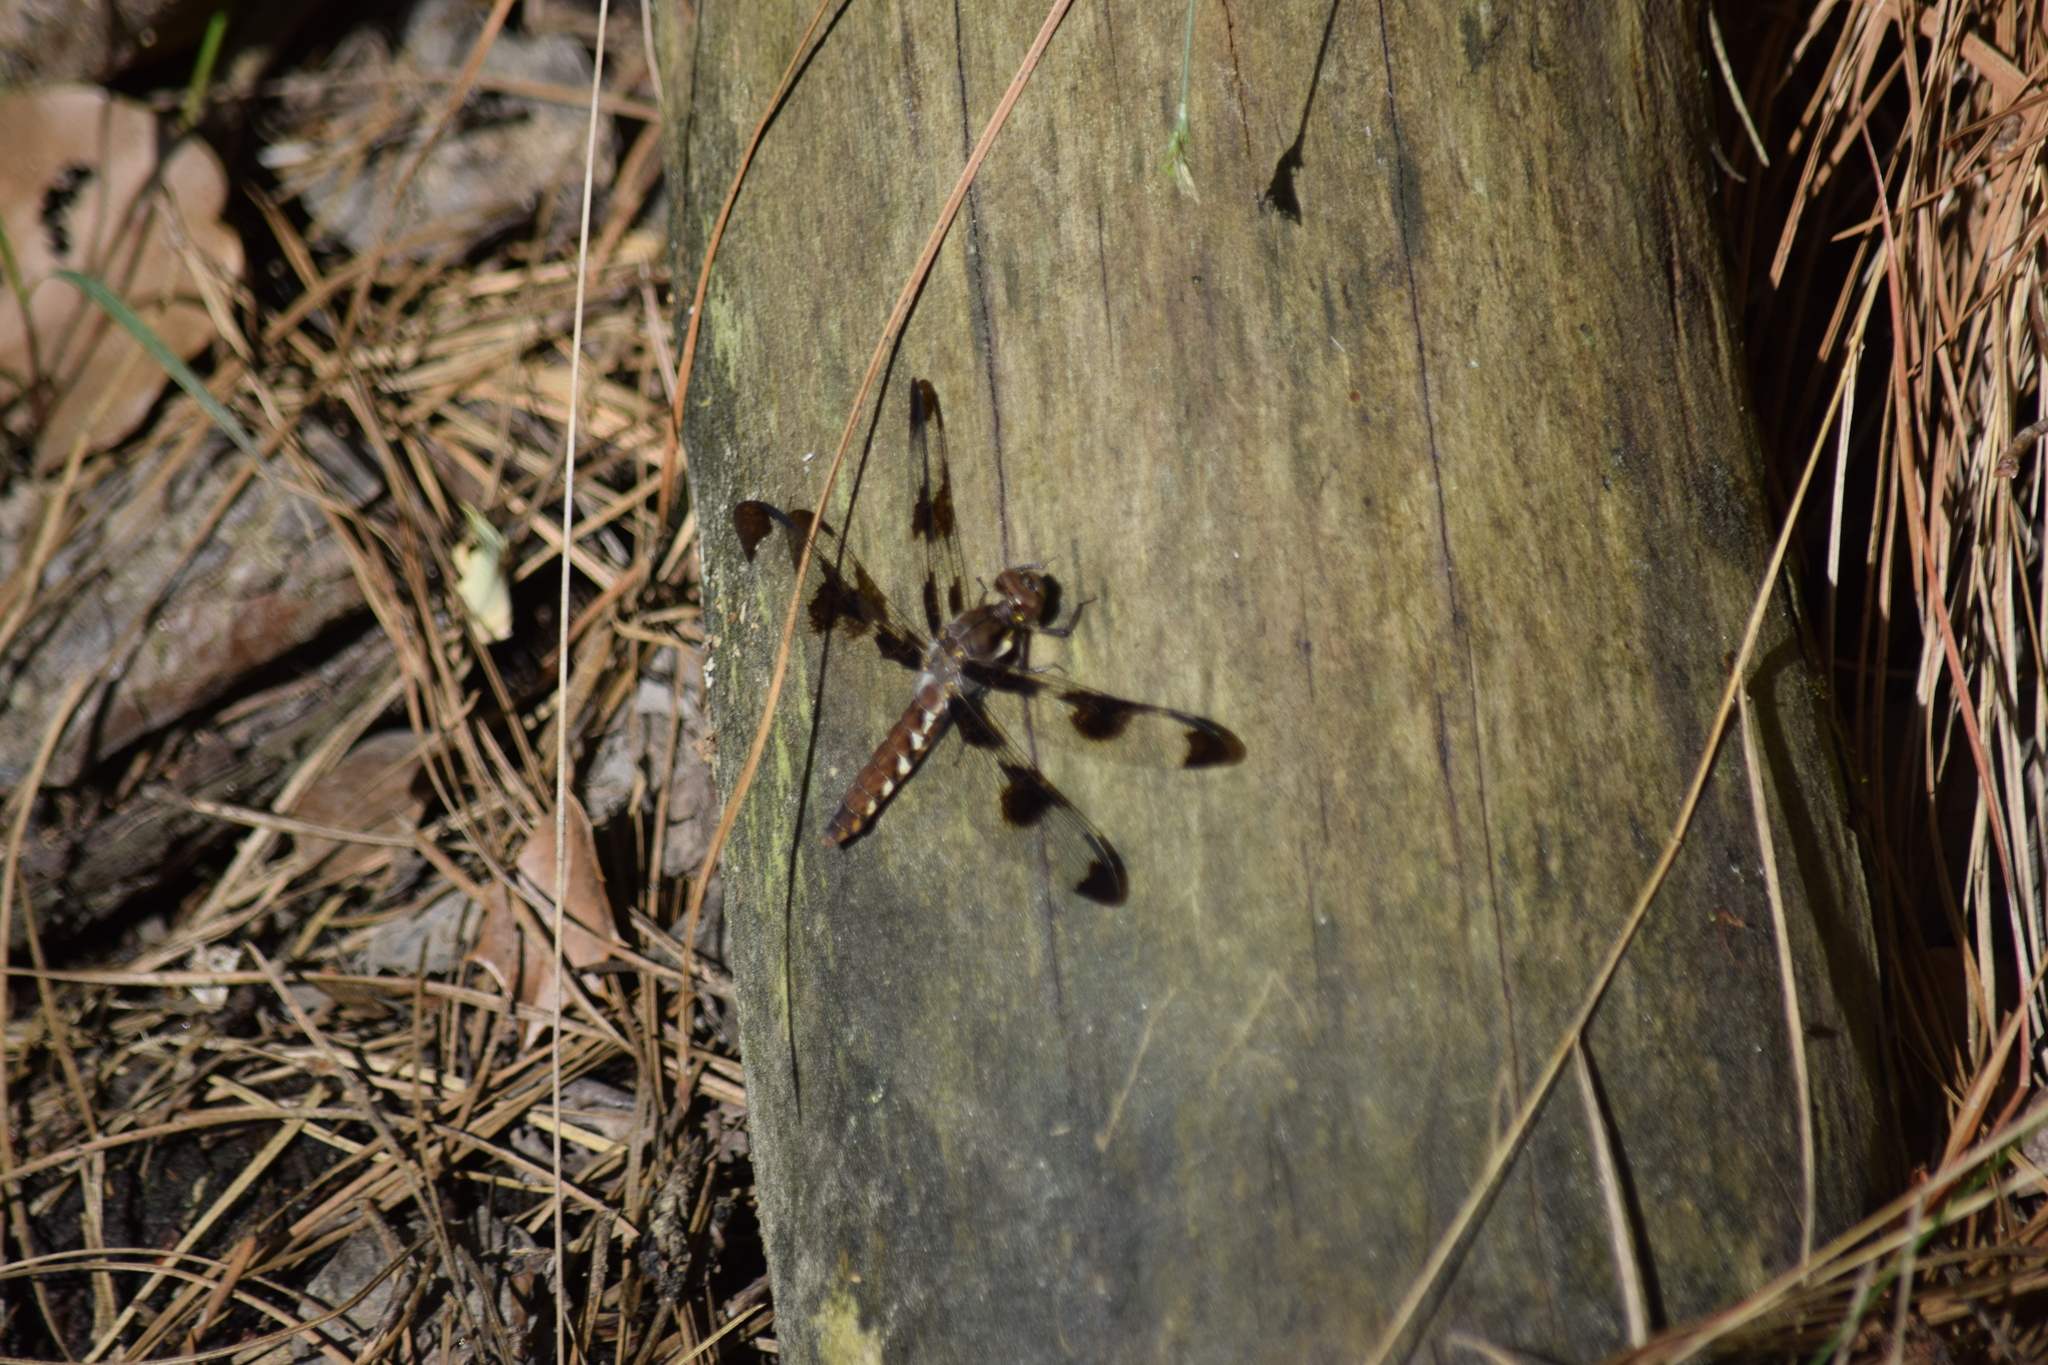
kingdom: Animalia
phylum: Arthropoda
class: Insecta
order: Odonata
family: Libellulidae
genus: Plathemis
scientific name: Plathemis lydia
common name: Common whitetail
